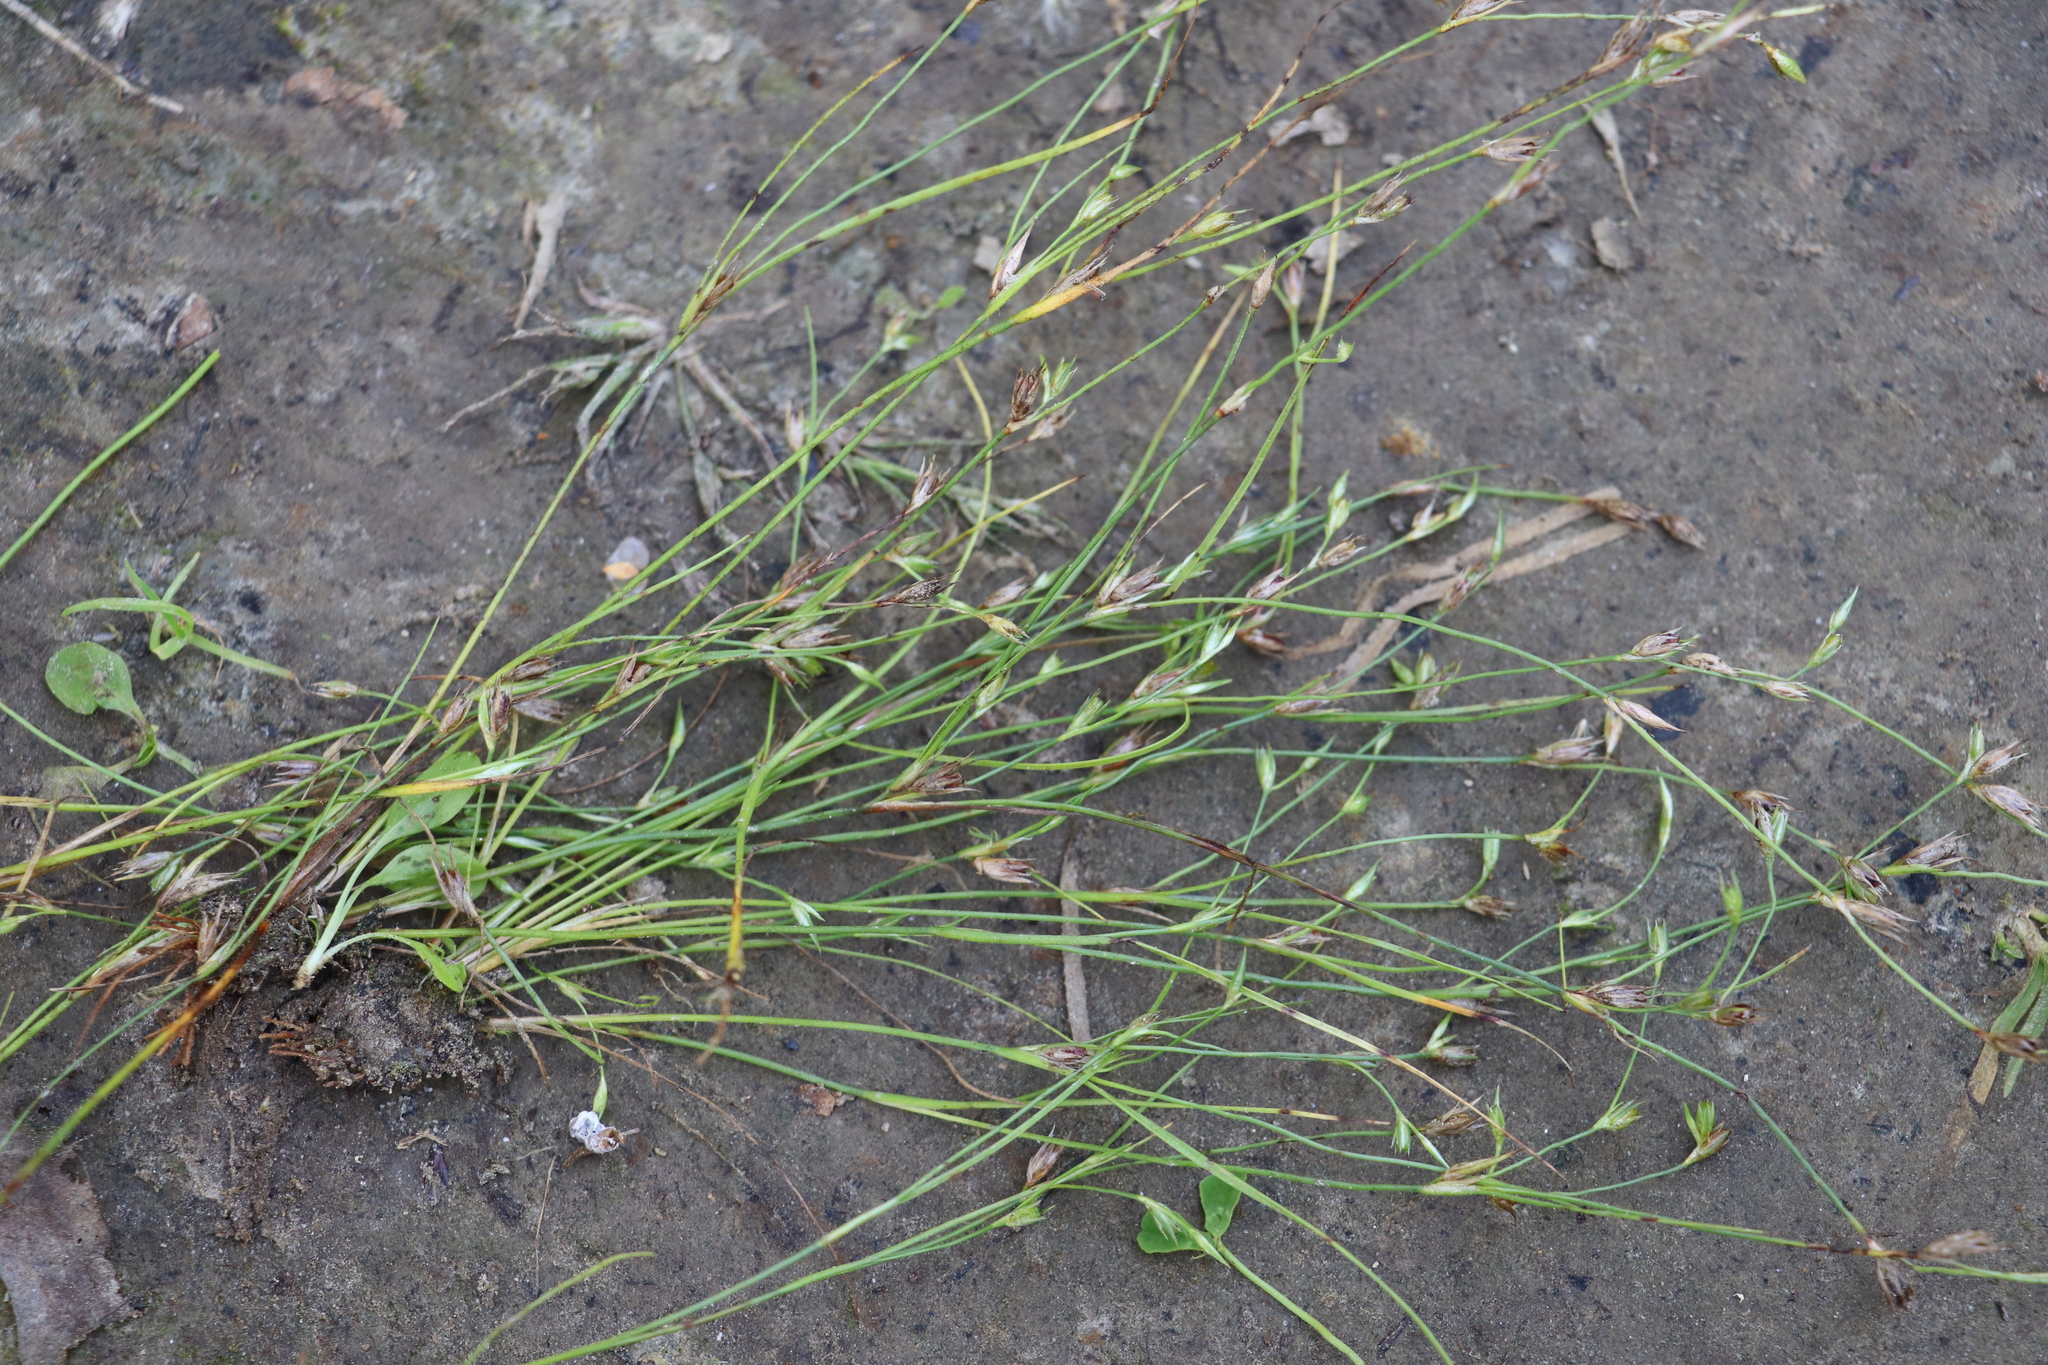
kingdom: Plantae
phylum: Tracheophyta
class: Liliopsida
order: Poales
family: Juncaceae
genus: Juncus
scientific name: Juncus bufonius
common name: Toad rush
